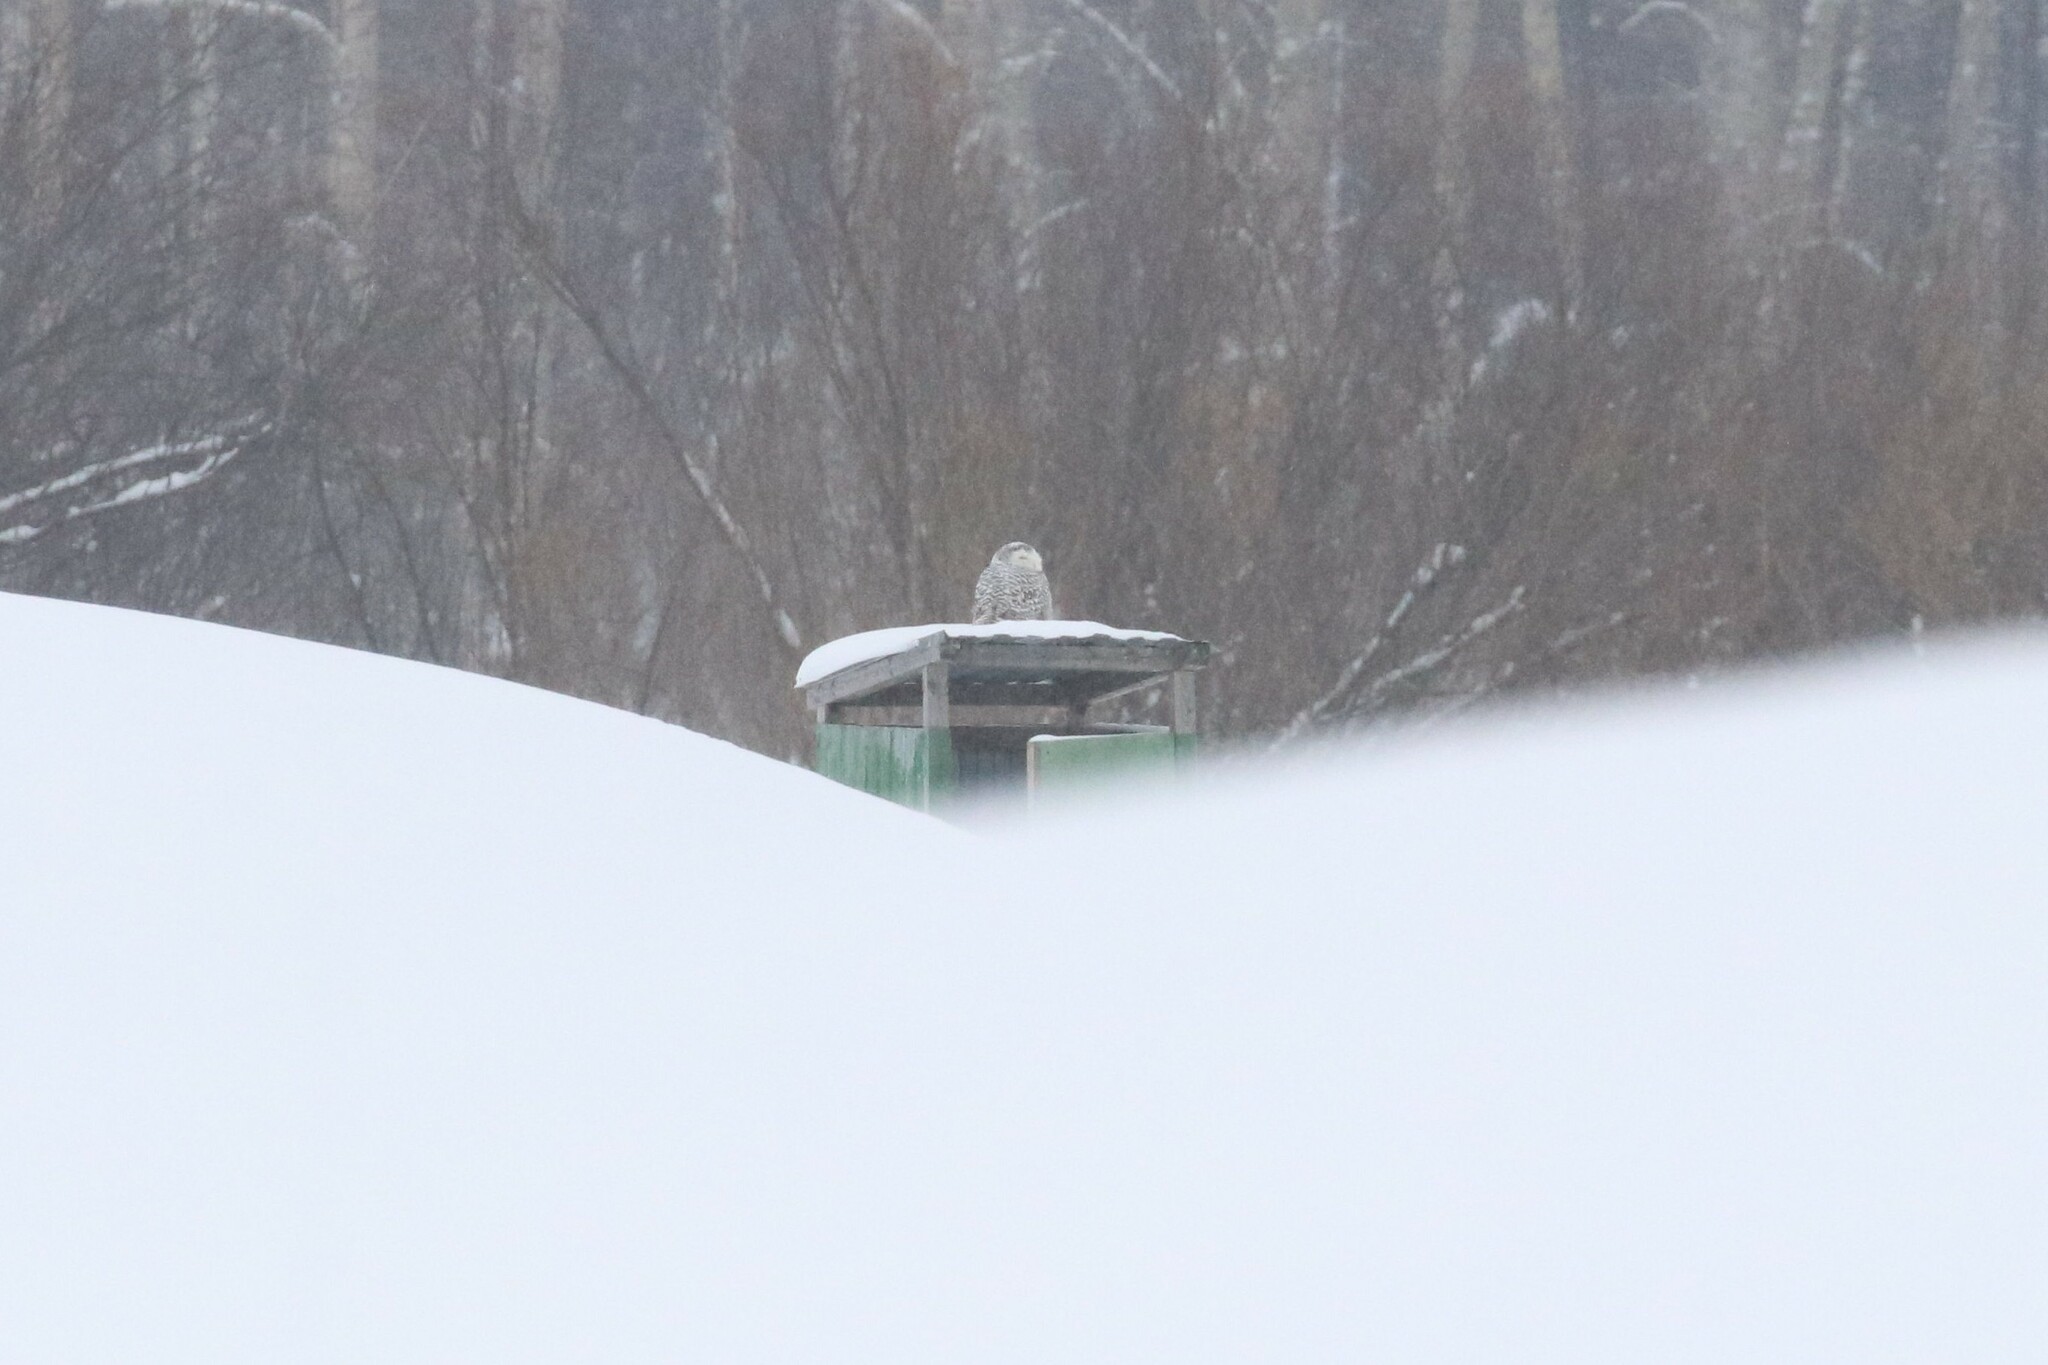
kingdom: Animalia
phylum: Chordata
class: Aves
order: Strigiformes
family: Strigidae
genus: Bubo
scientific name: Bubo scandiacus
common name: Snowy owl
